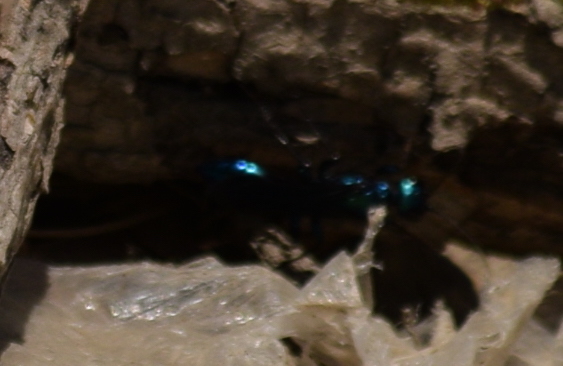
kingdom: Animalia
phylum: Arthropoda
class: Insecta
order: Hymenoptera
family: Sphecidae
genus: Chlorion
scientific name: Chlorion
